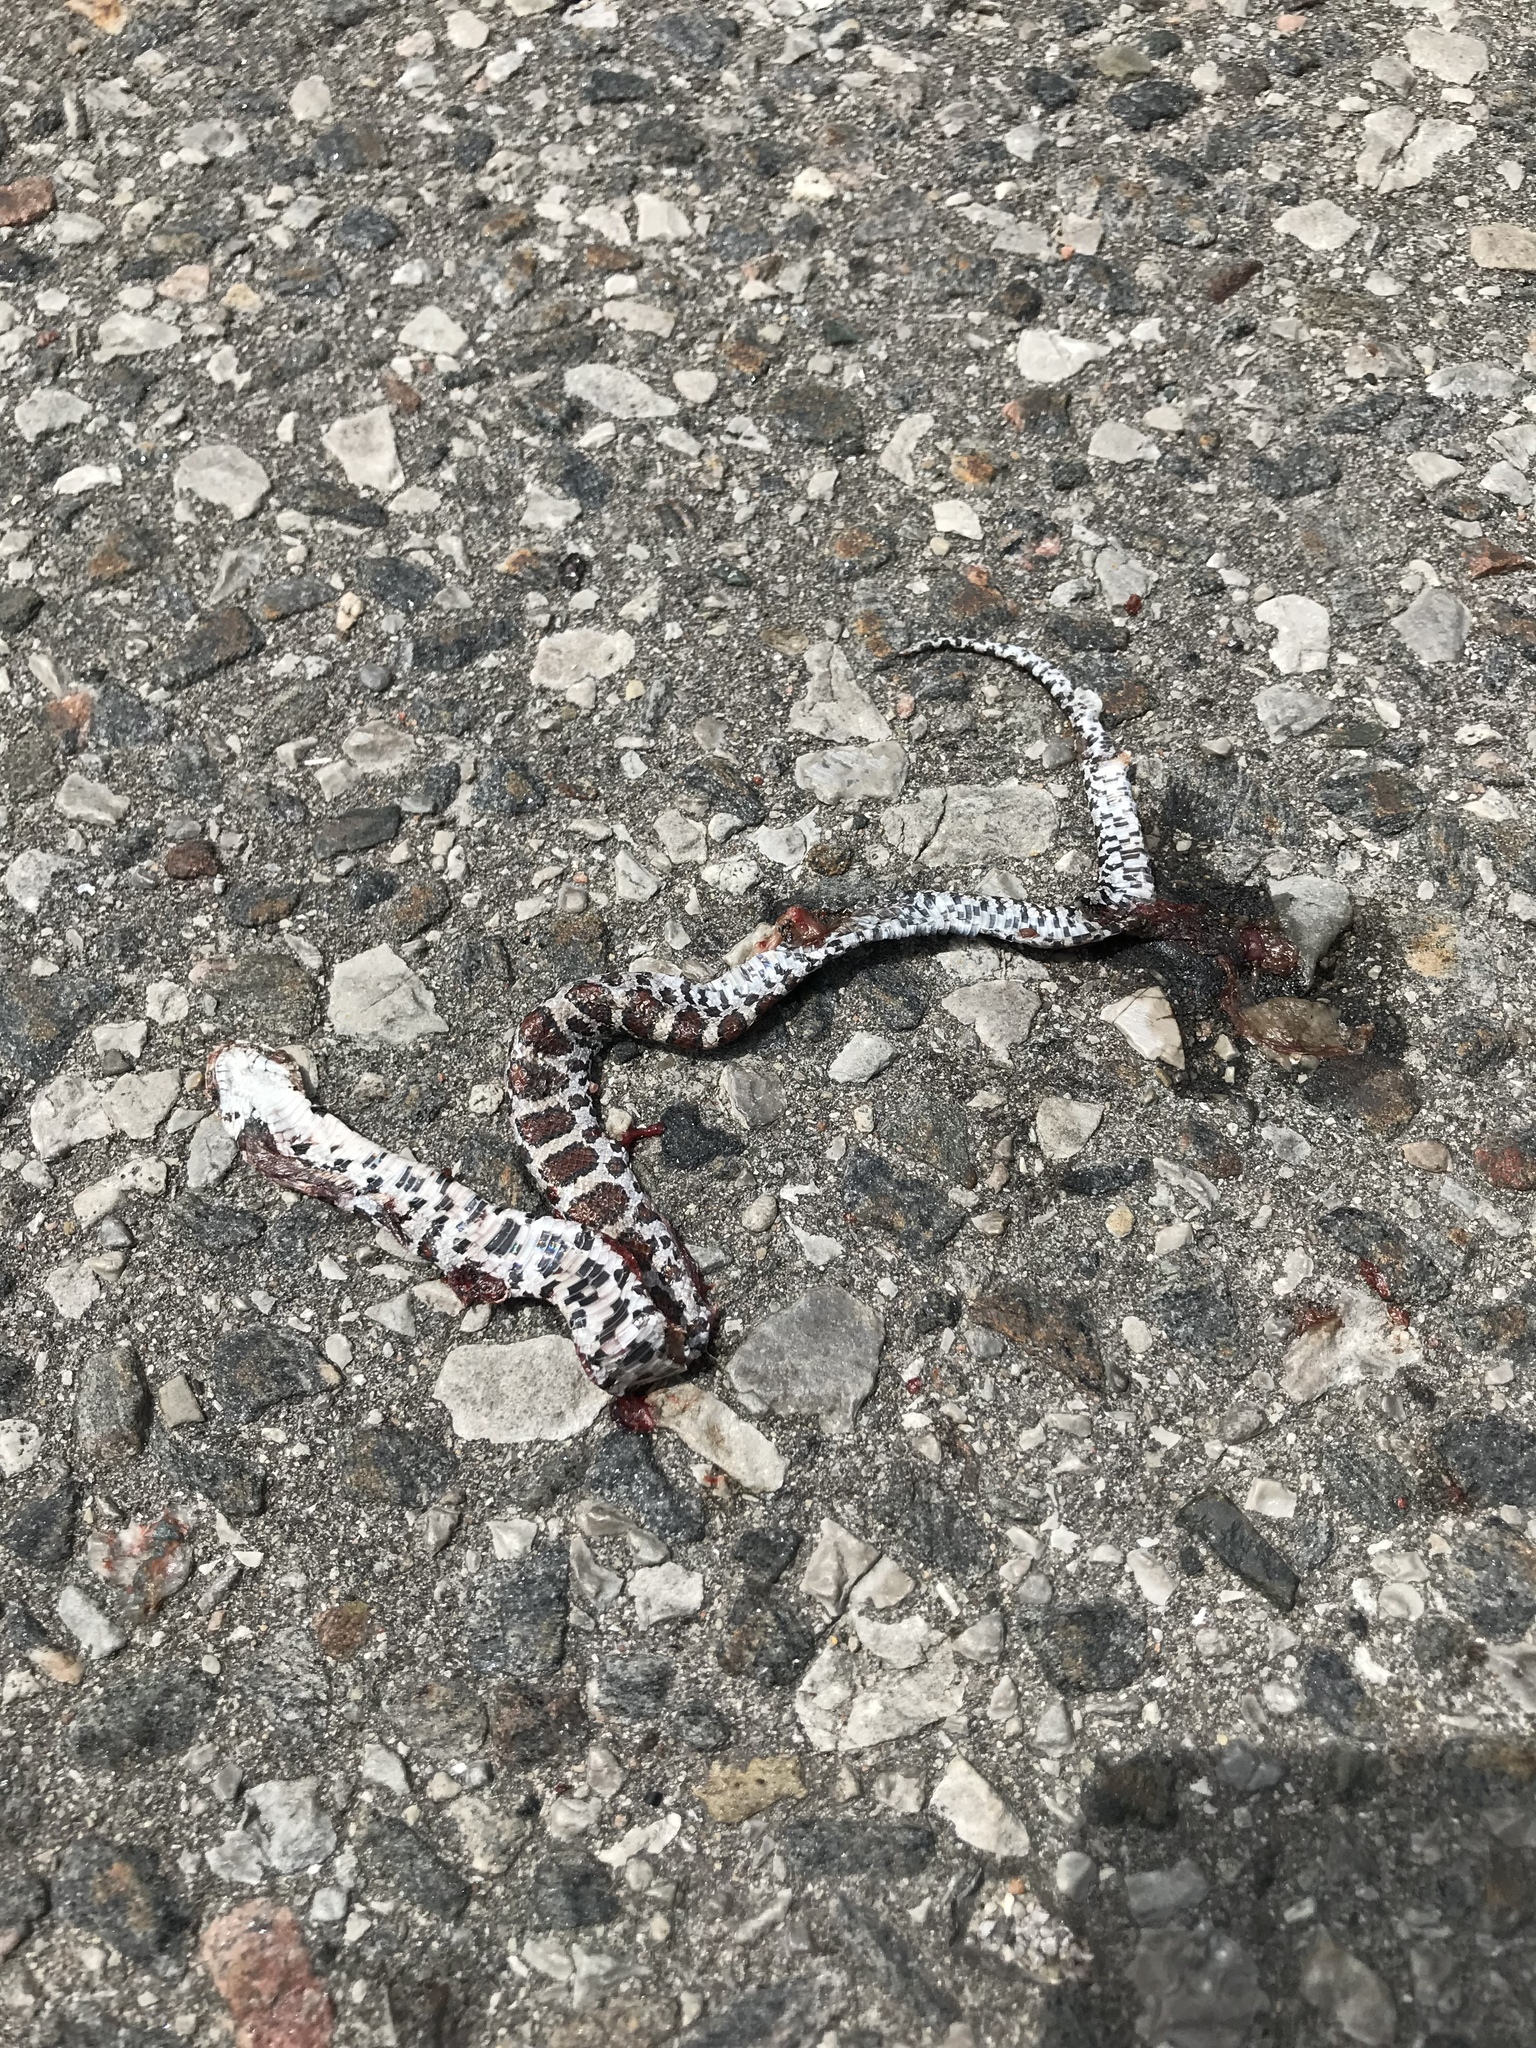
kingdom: Animalia
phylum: Chordata
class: Squamata
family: Colubridae
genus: Lampropeltis
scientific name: Lampropeltis triangulum
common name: Eastern milksnake
